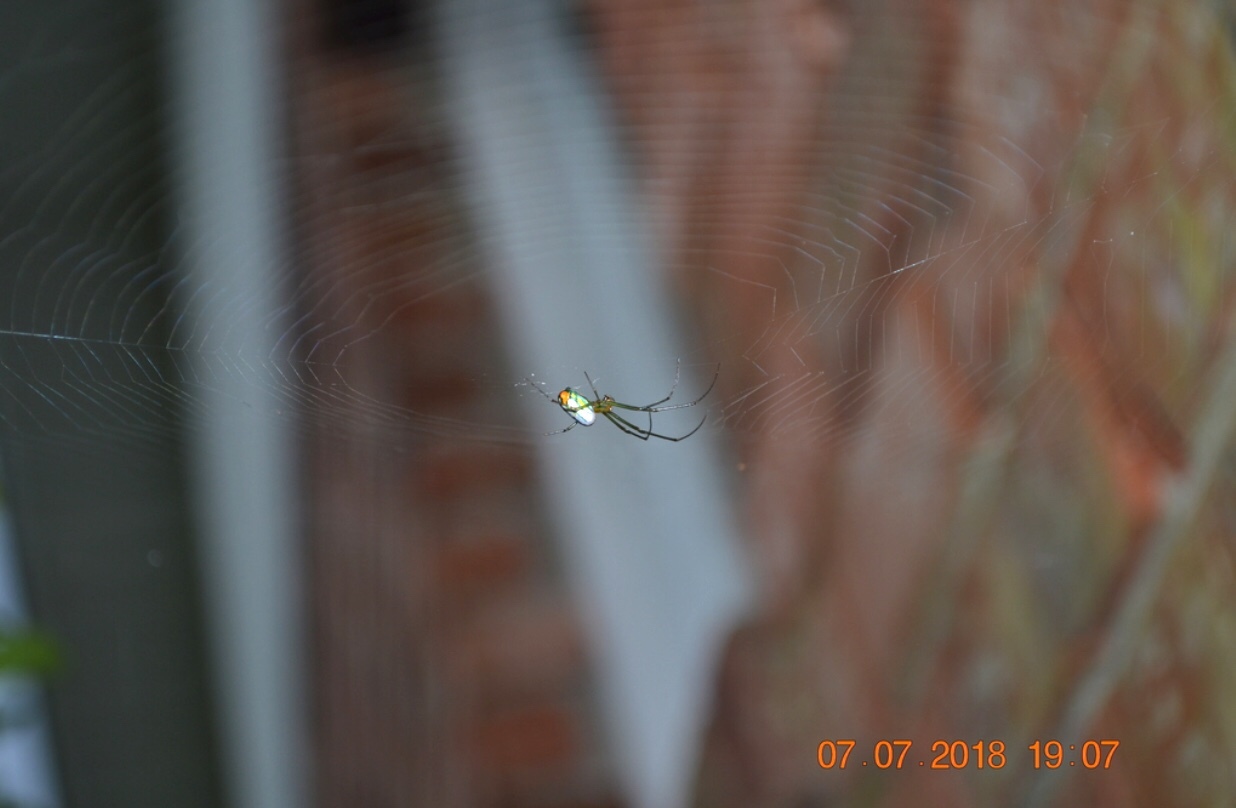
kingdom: Animalia
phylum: Arthropoda
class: Arachnida
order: Araneae
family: Tetragnathidae
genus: Leucauge
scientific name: Leucauge argyrobapta
